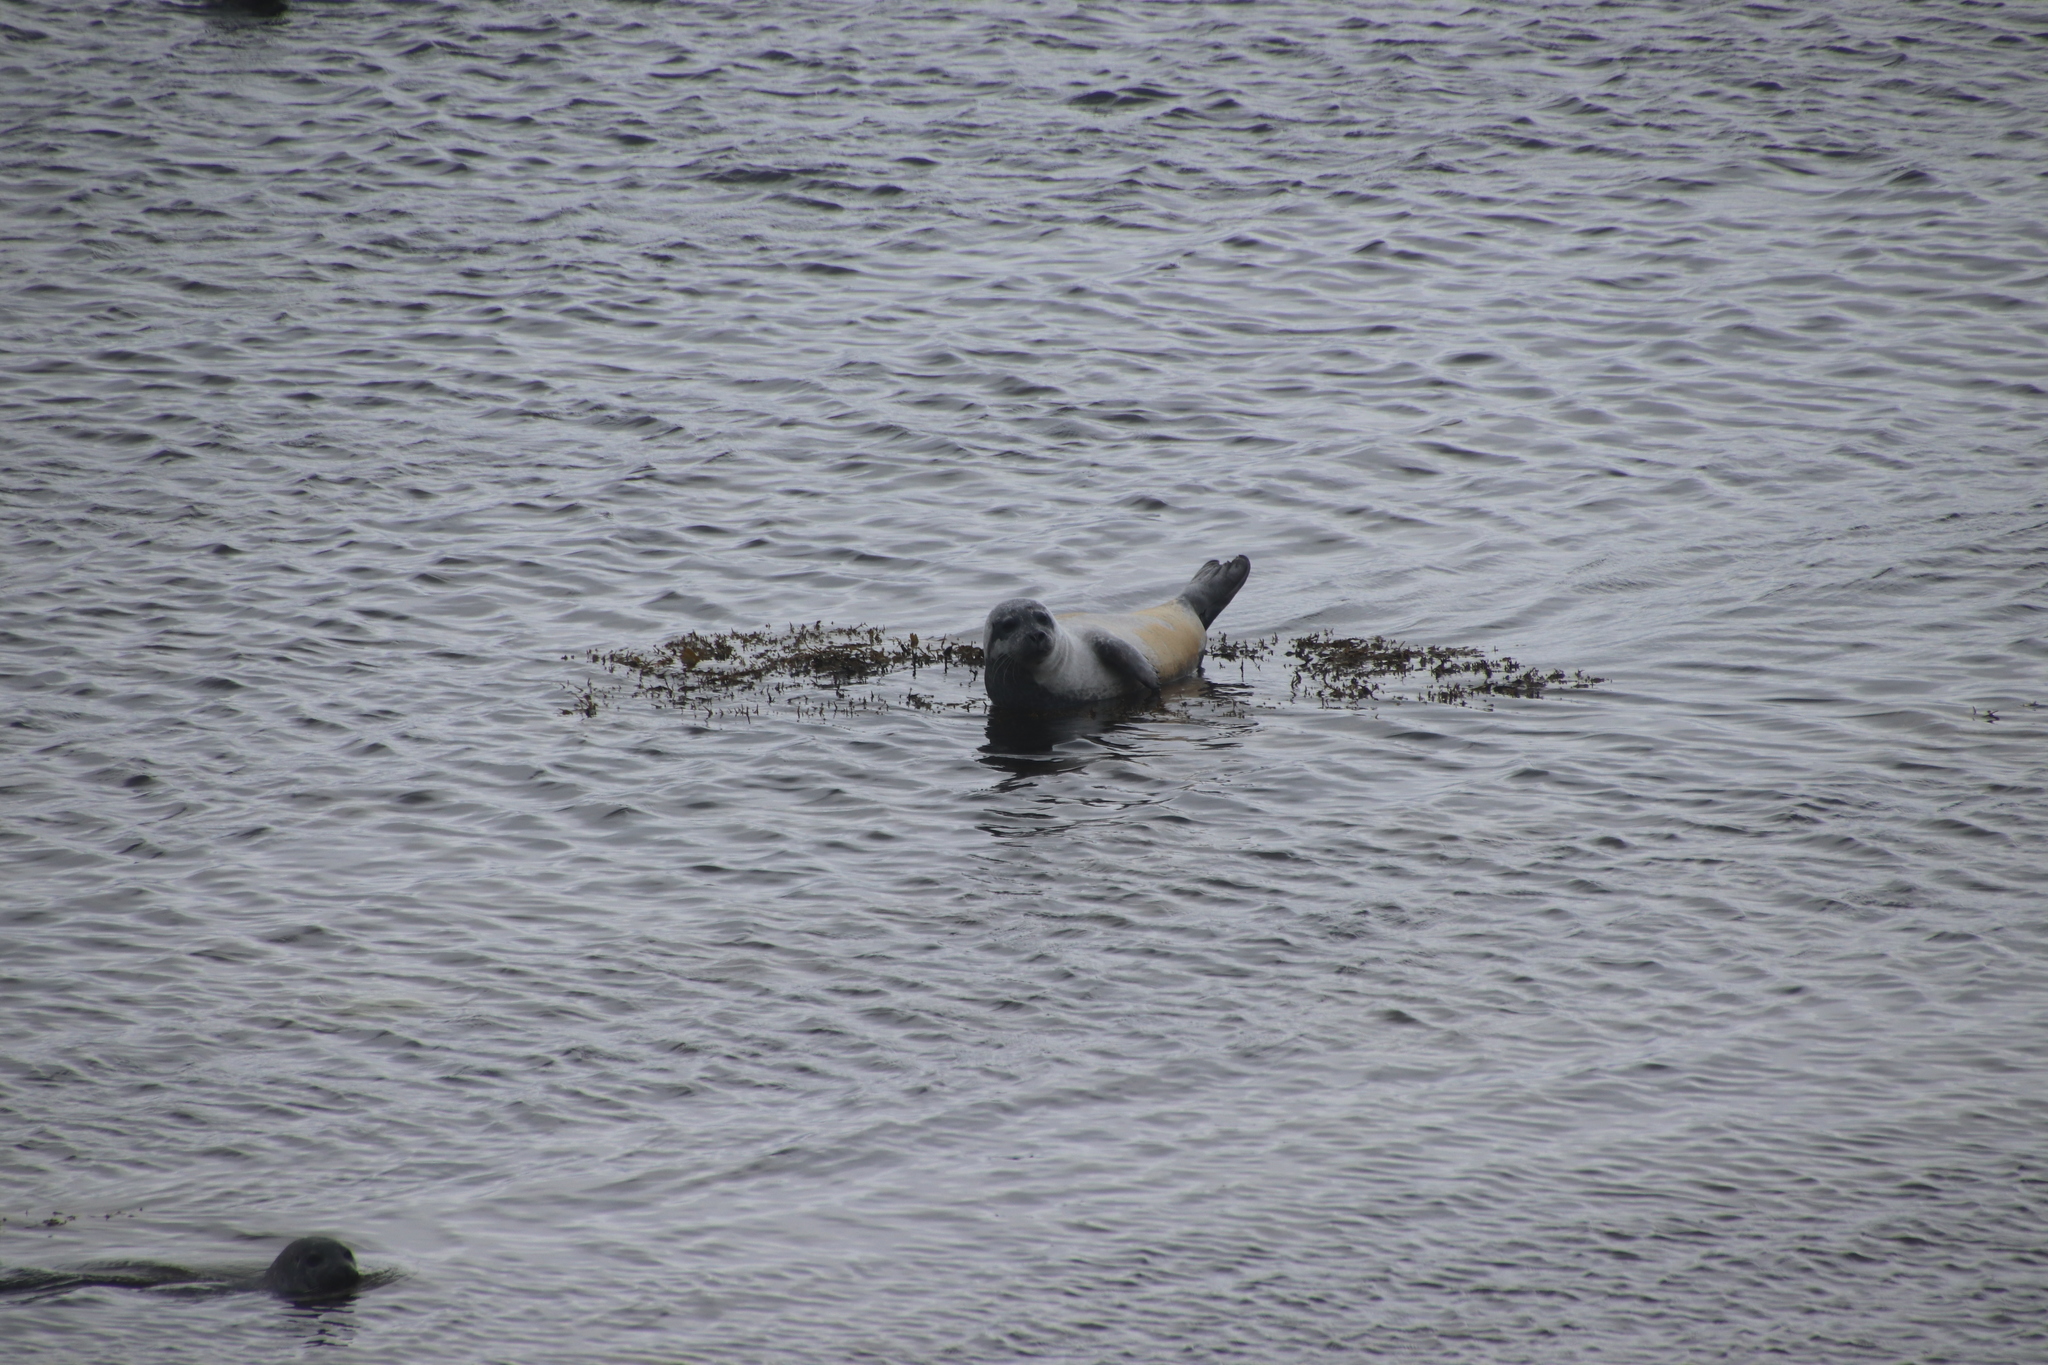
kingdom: Animalia
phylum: Chordata
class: Mammalia
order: Carnivora
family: Phocidae
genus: Phoca
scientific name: Phoca vitulina
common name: Harbor seal
